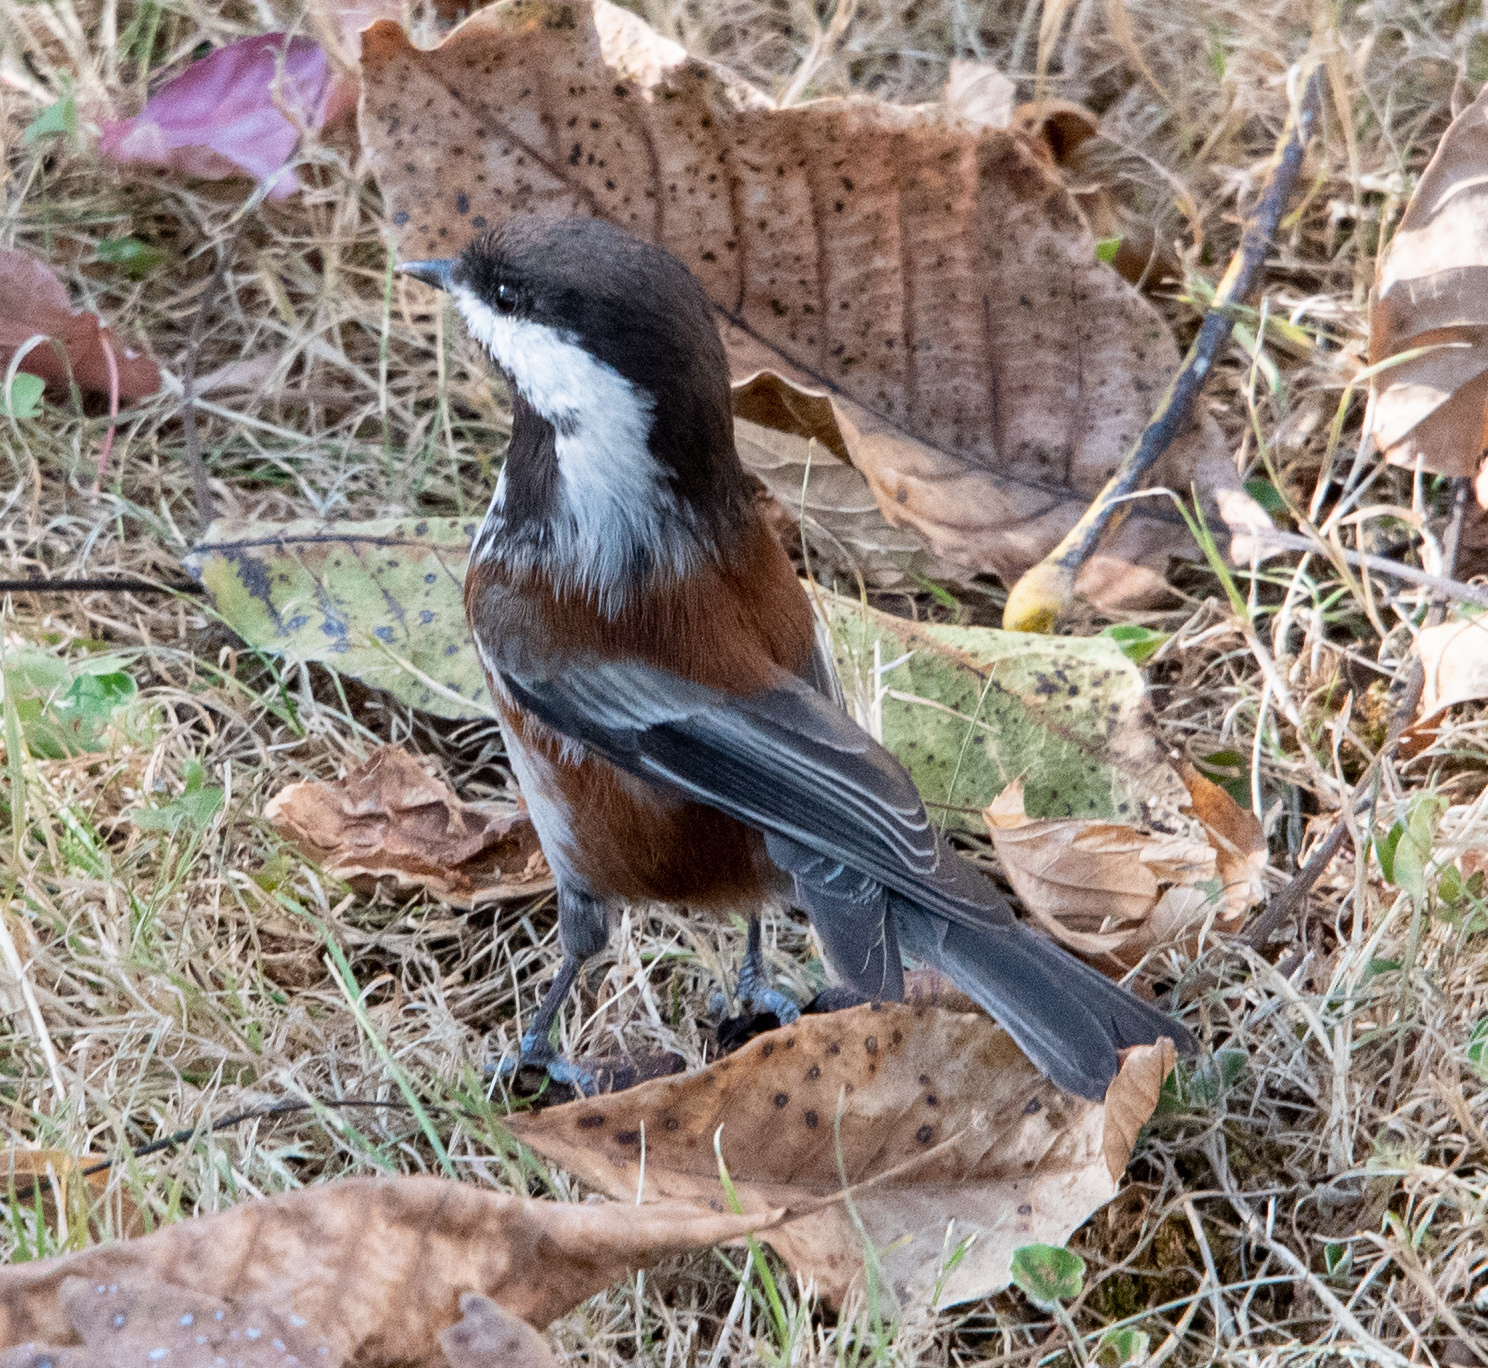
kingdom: Animalia
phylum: Chordata
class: Aves
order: Passeriformes
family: Paridae
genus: Poecile
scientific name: Poecile rufescens
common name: Chestnut-backed chickadee
